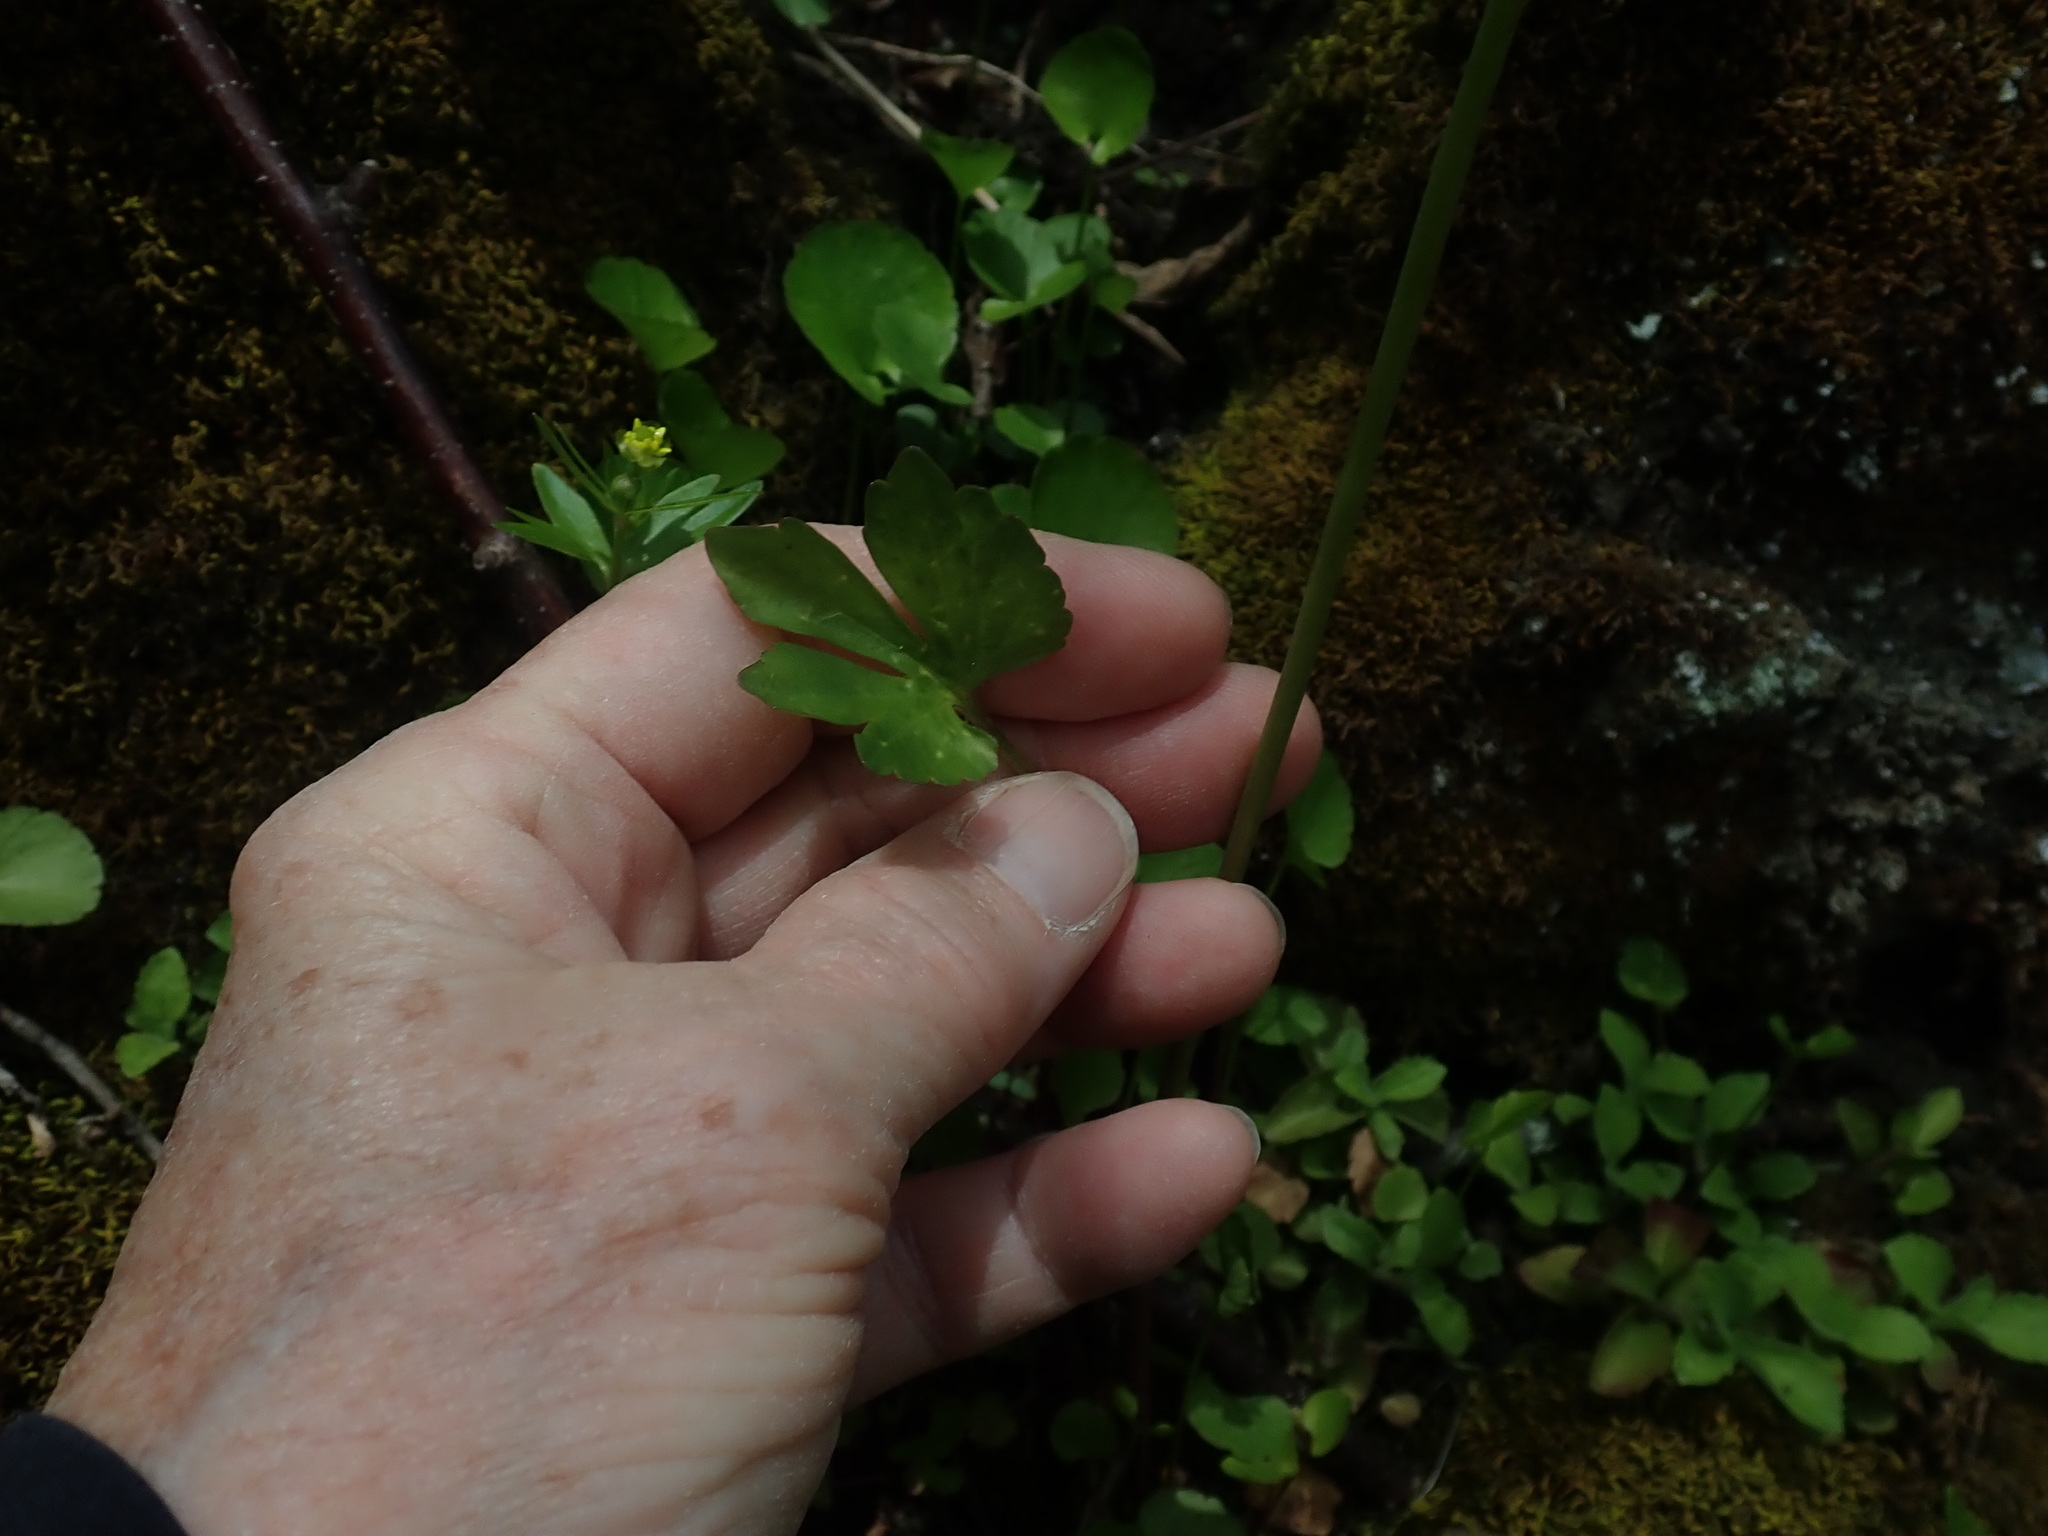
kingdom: Plantae
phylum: Tracheophyta
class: Magnoliopsida
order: Ranunculales
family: Ranunculaceae
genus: Ranunculus
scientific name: Ranunculus abortivus
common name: Early wood buttercup
